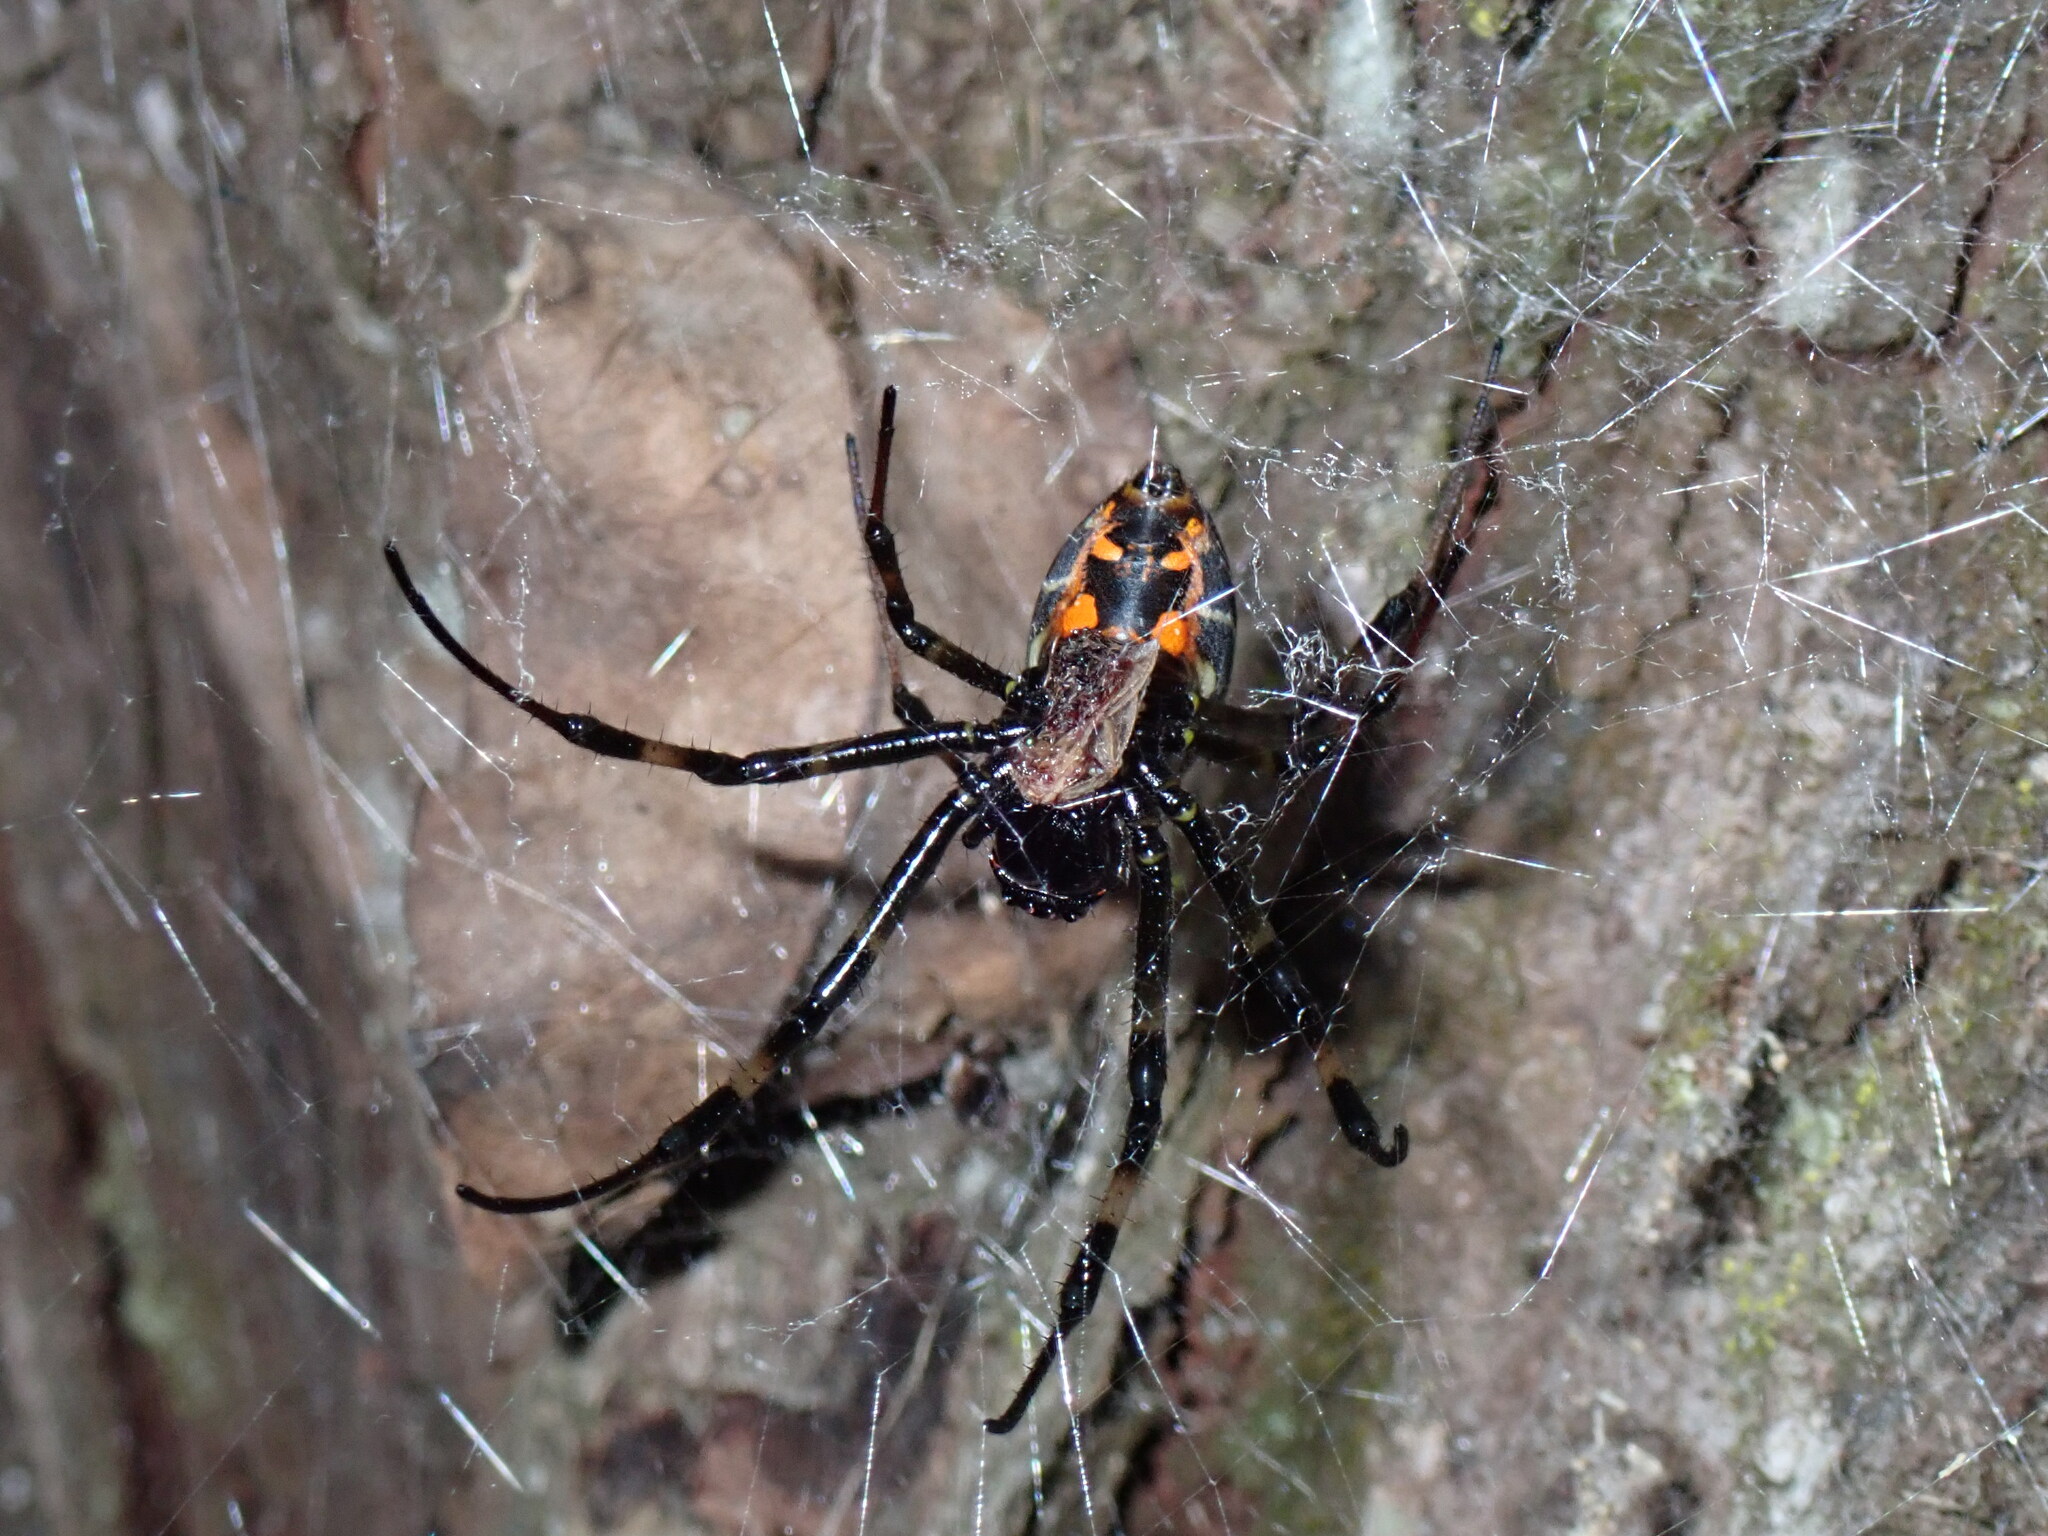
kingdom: Animalia
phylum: Arthropoda
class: Arachnida
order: Araneae
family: Araneidae
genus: Nephilengys
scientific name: Nephilengys malabarensis
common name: Asian hermit spider
